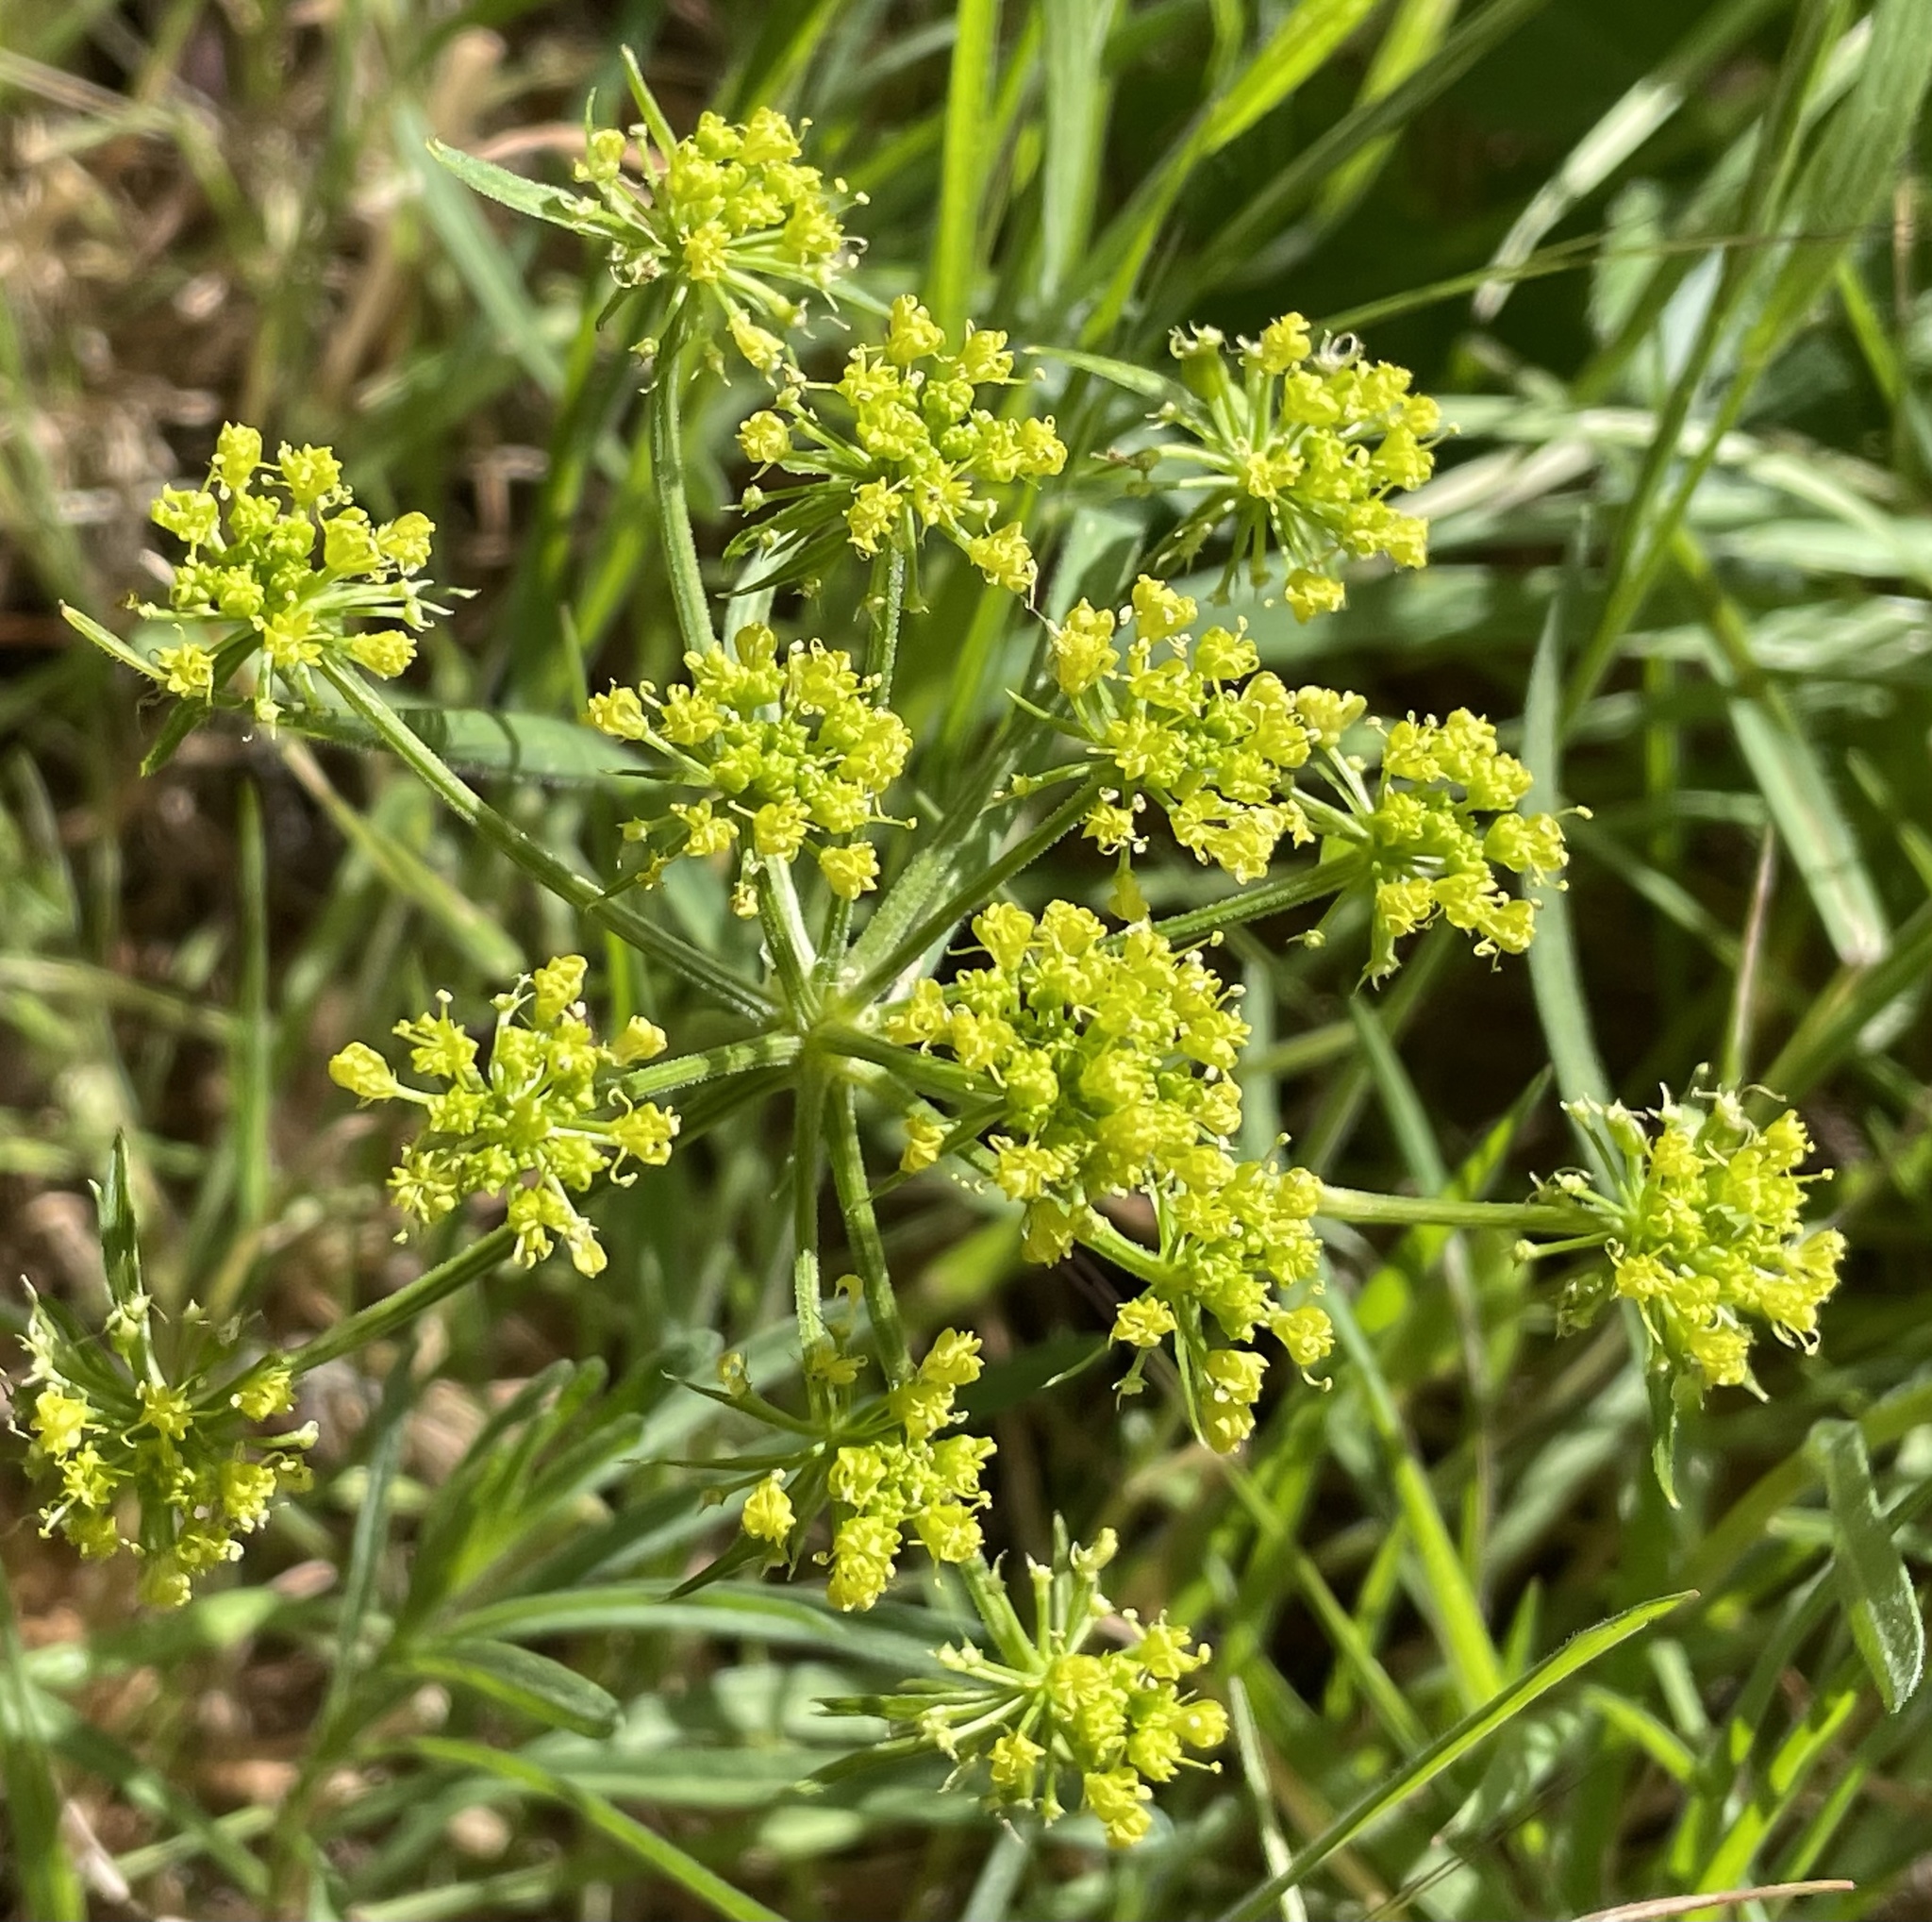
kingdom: Plantae
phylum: Tracheophyta
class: Magnoliopsida
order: Apiales
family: Apiaceae
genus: Tauschia
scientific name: Tauschia hartwegii
